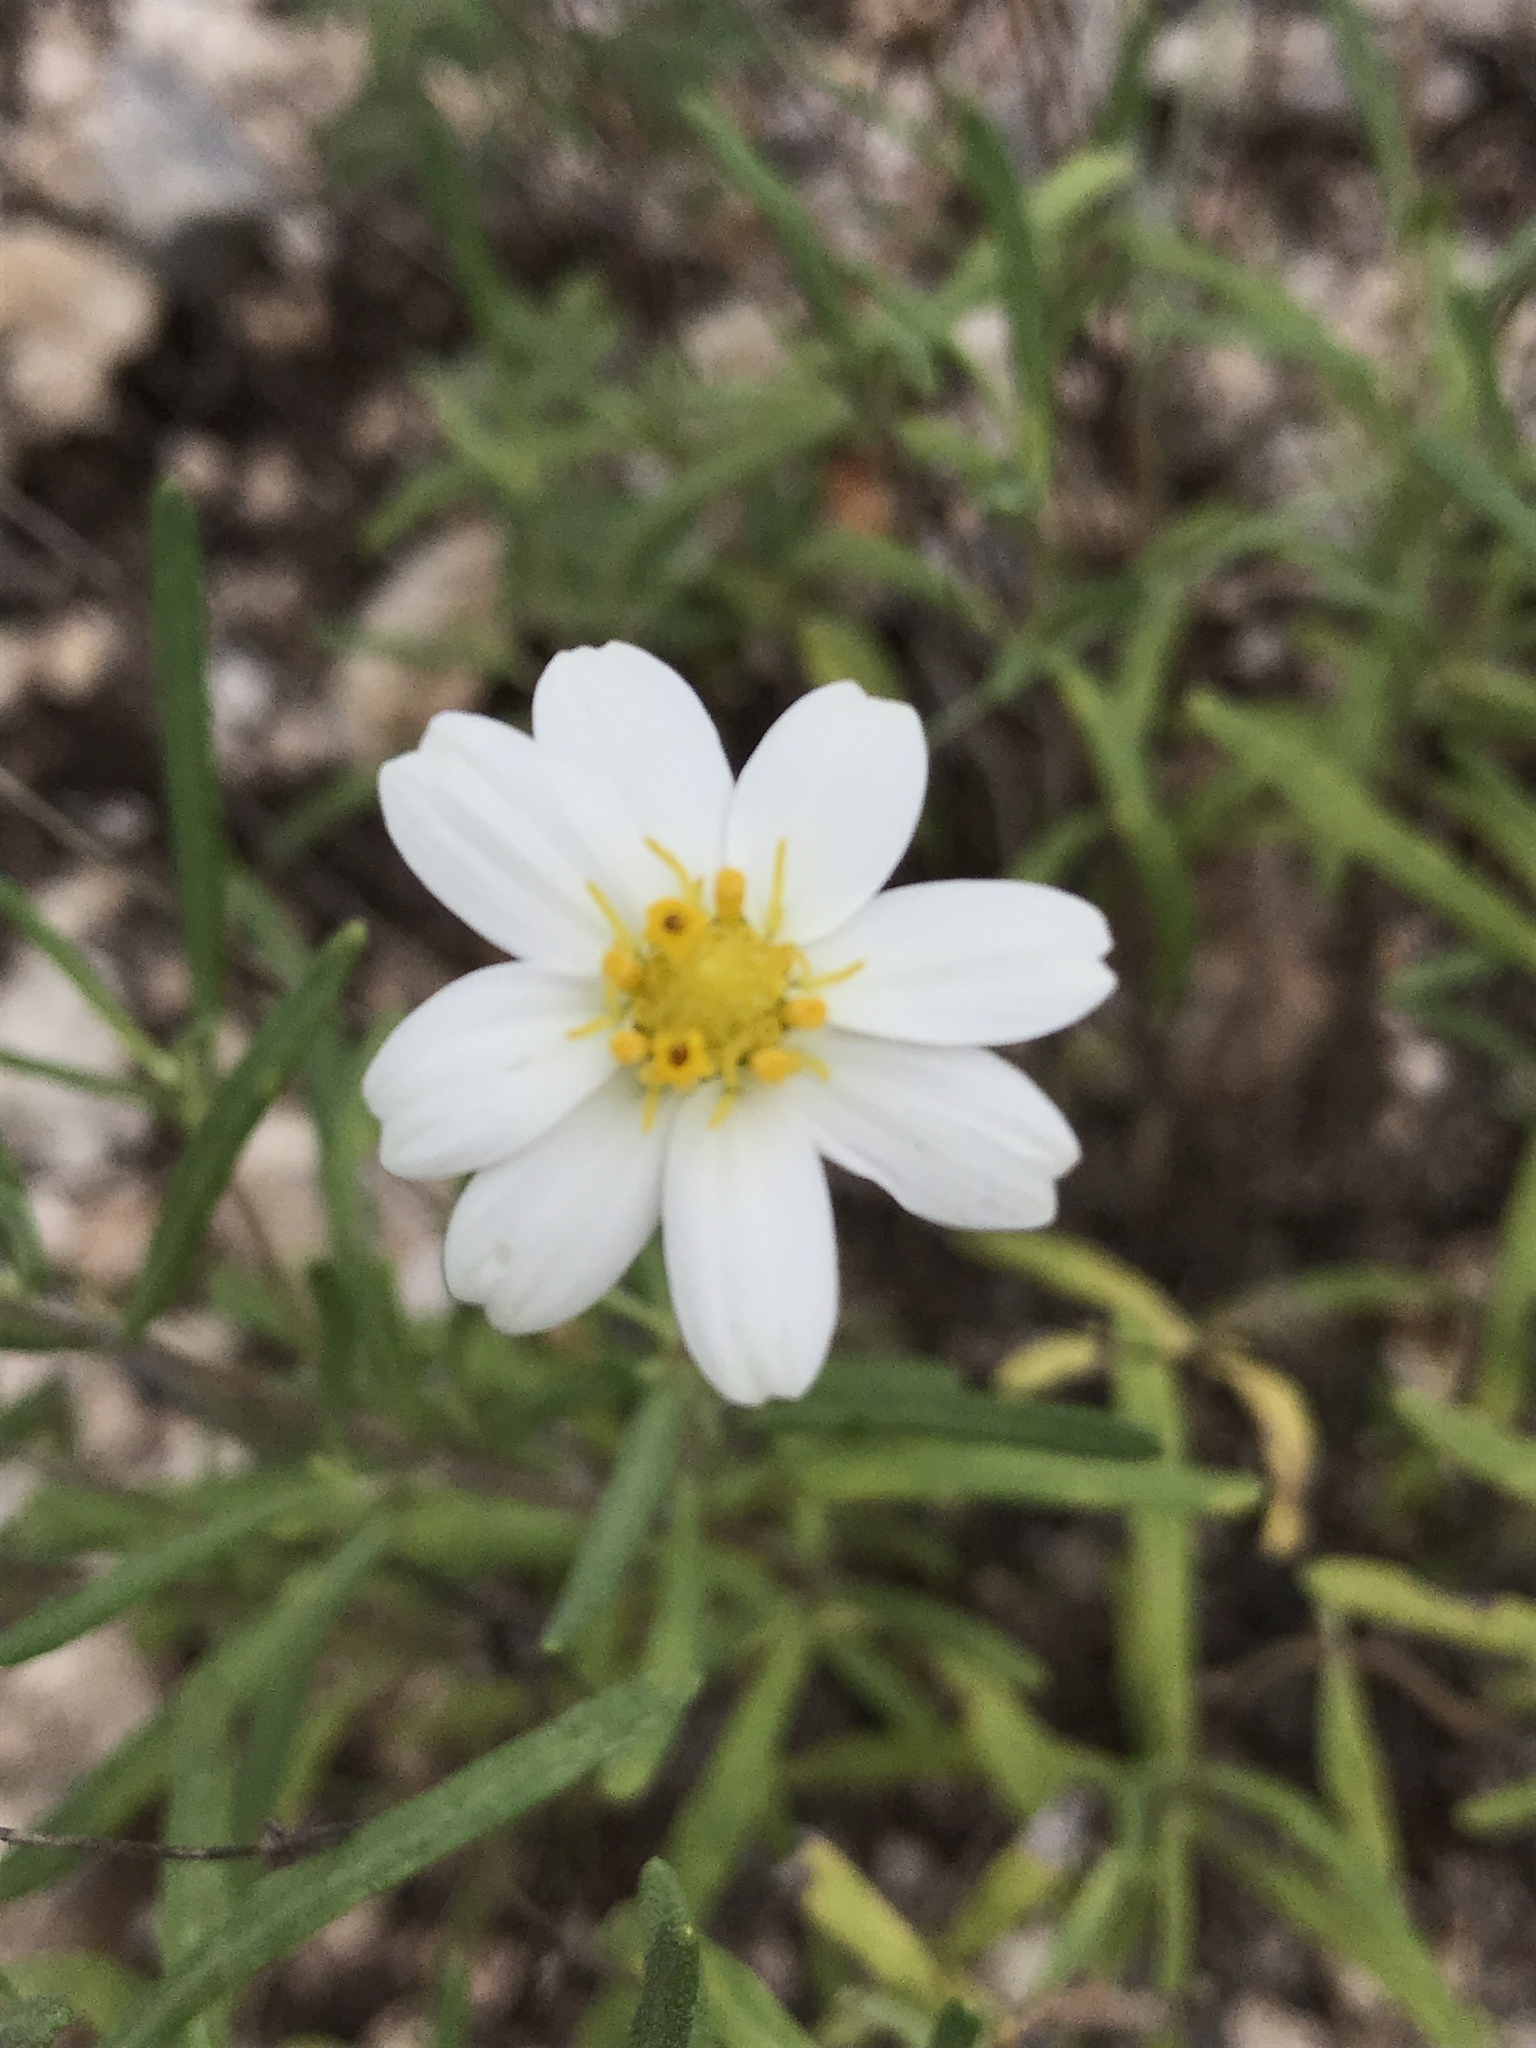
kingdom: Plantae
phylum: Tracheophyta
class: Magnoliopsida
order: Asterales
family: Asteraceae
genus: Melampodium
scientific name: Melampodium leucanthum
